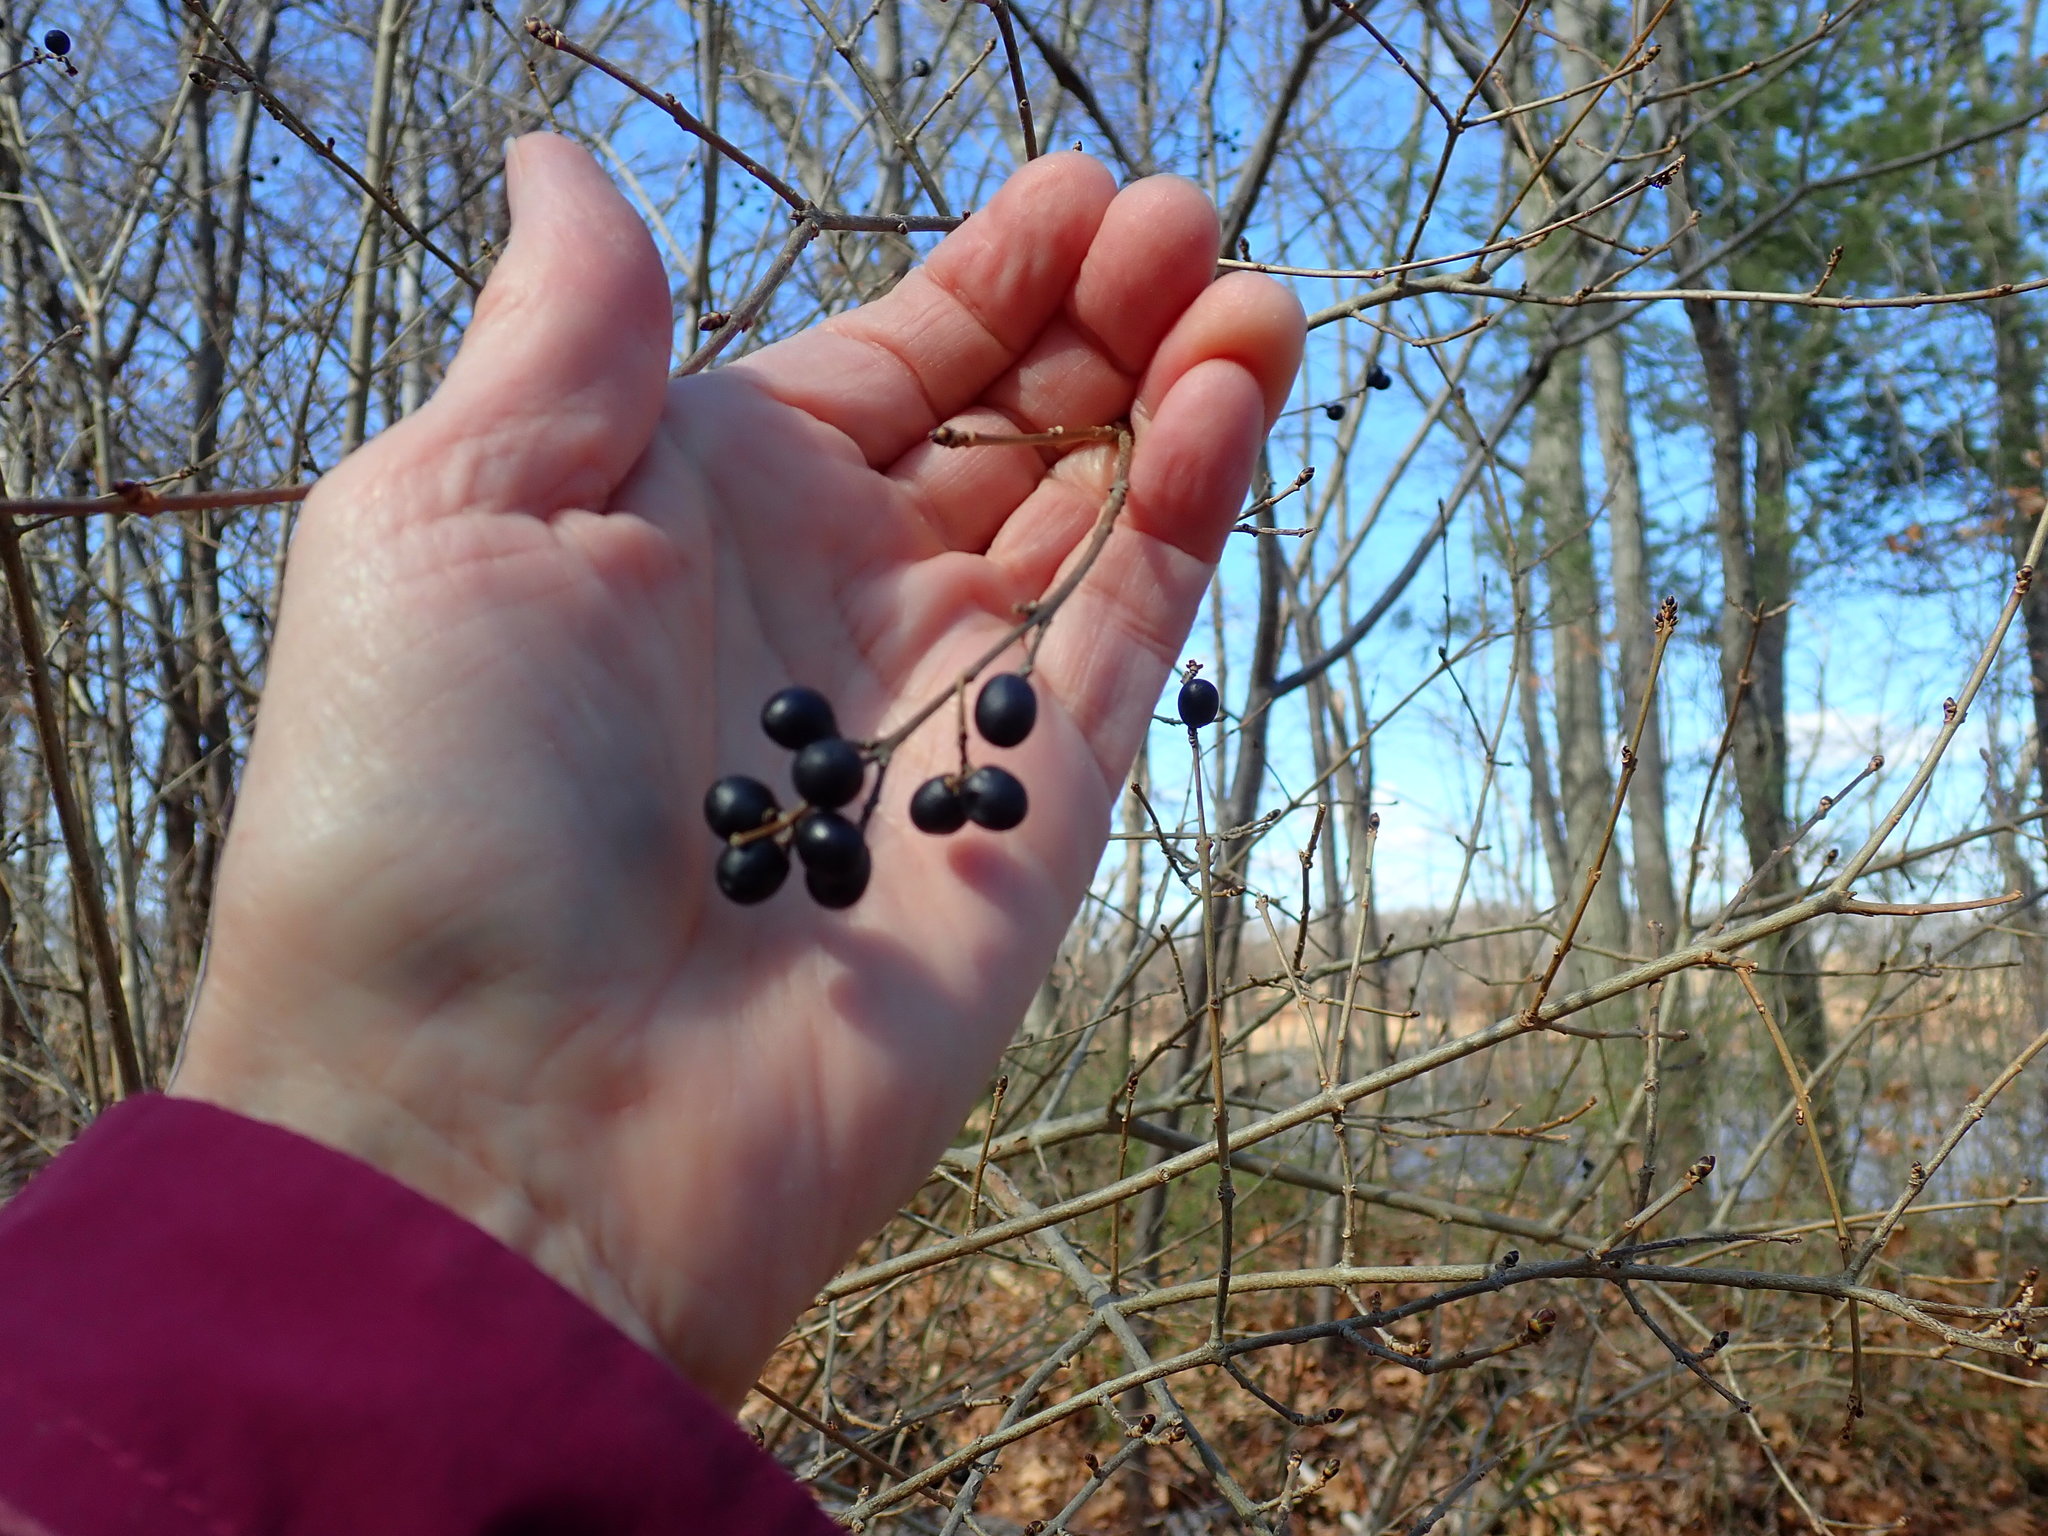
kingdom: Plantae
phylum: Tracheophyta
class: Magnoliopsida
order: Lamiales
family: Oleaceae
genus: Ligustrum
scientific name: Ligustrum vulgare
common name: Wild privet
